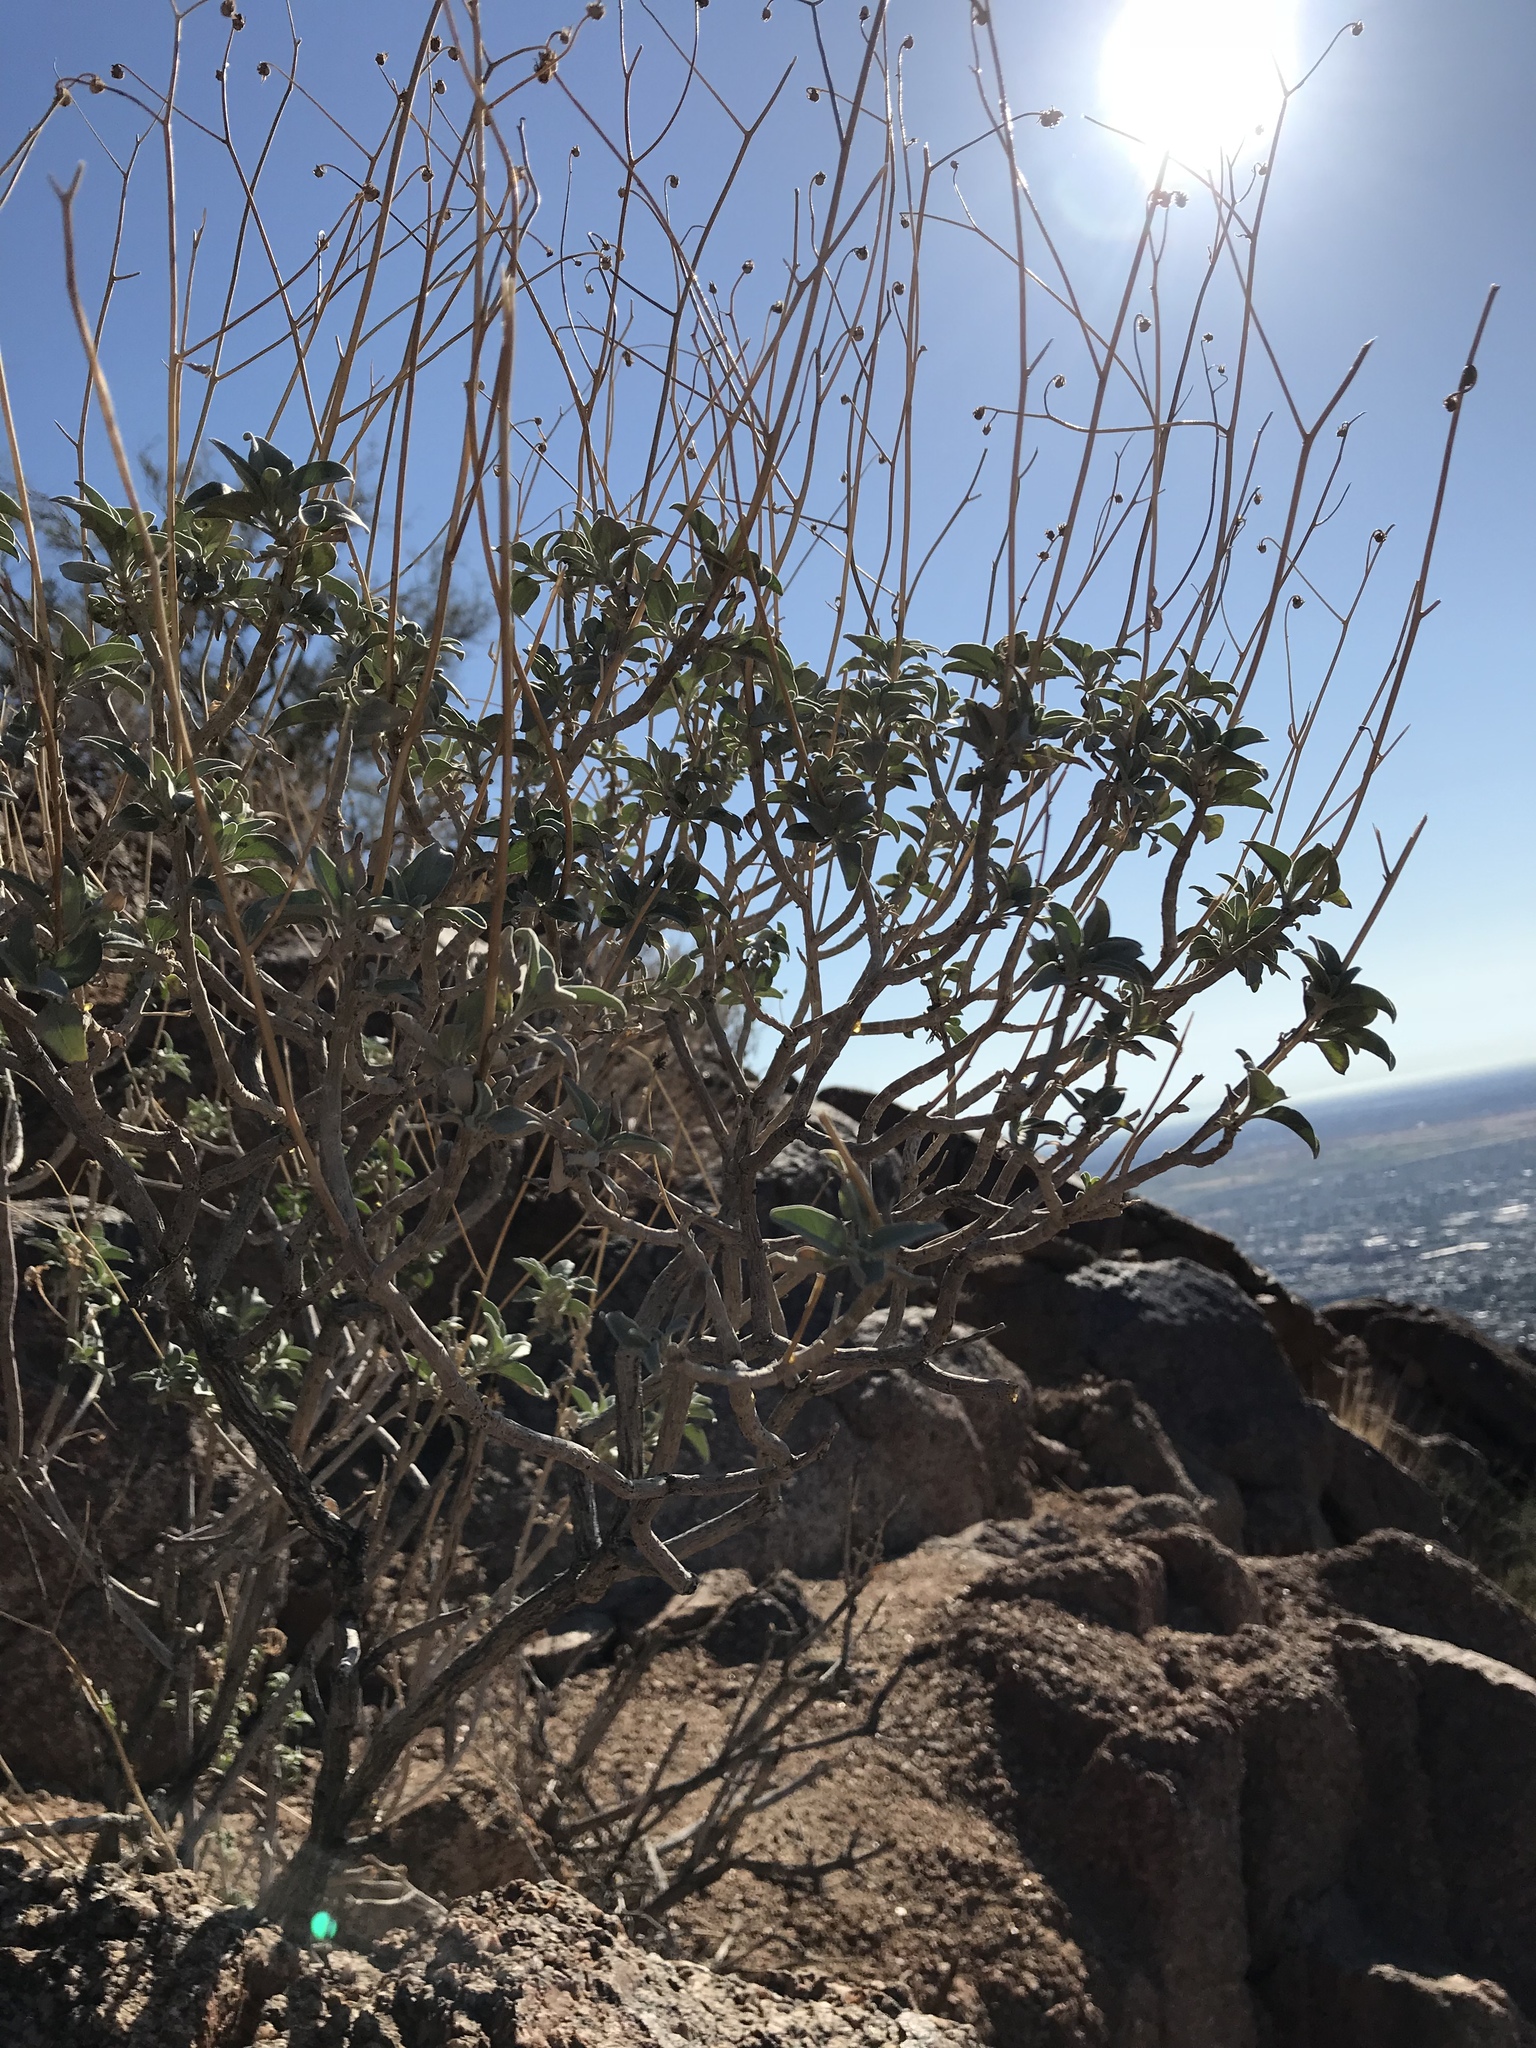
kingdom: Plantae
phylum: Tracheophyta
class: Magnoliopsida
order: Asterales
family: Asteraceae
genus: Encelia
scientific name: Encelia farinosa
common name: Brittlebush
